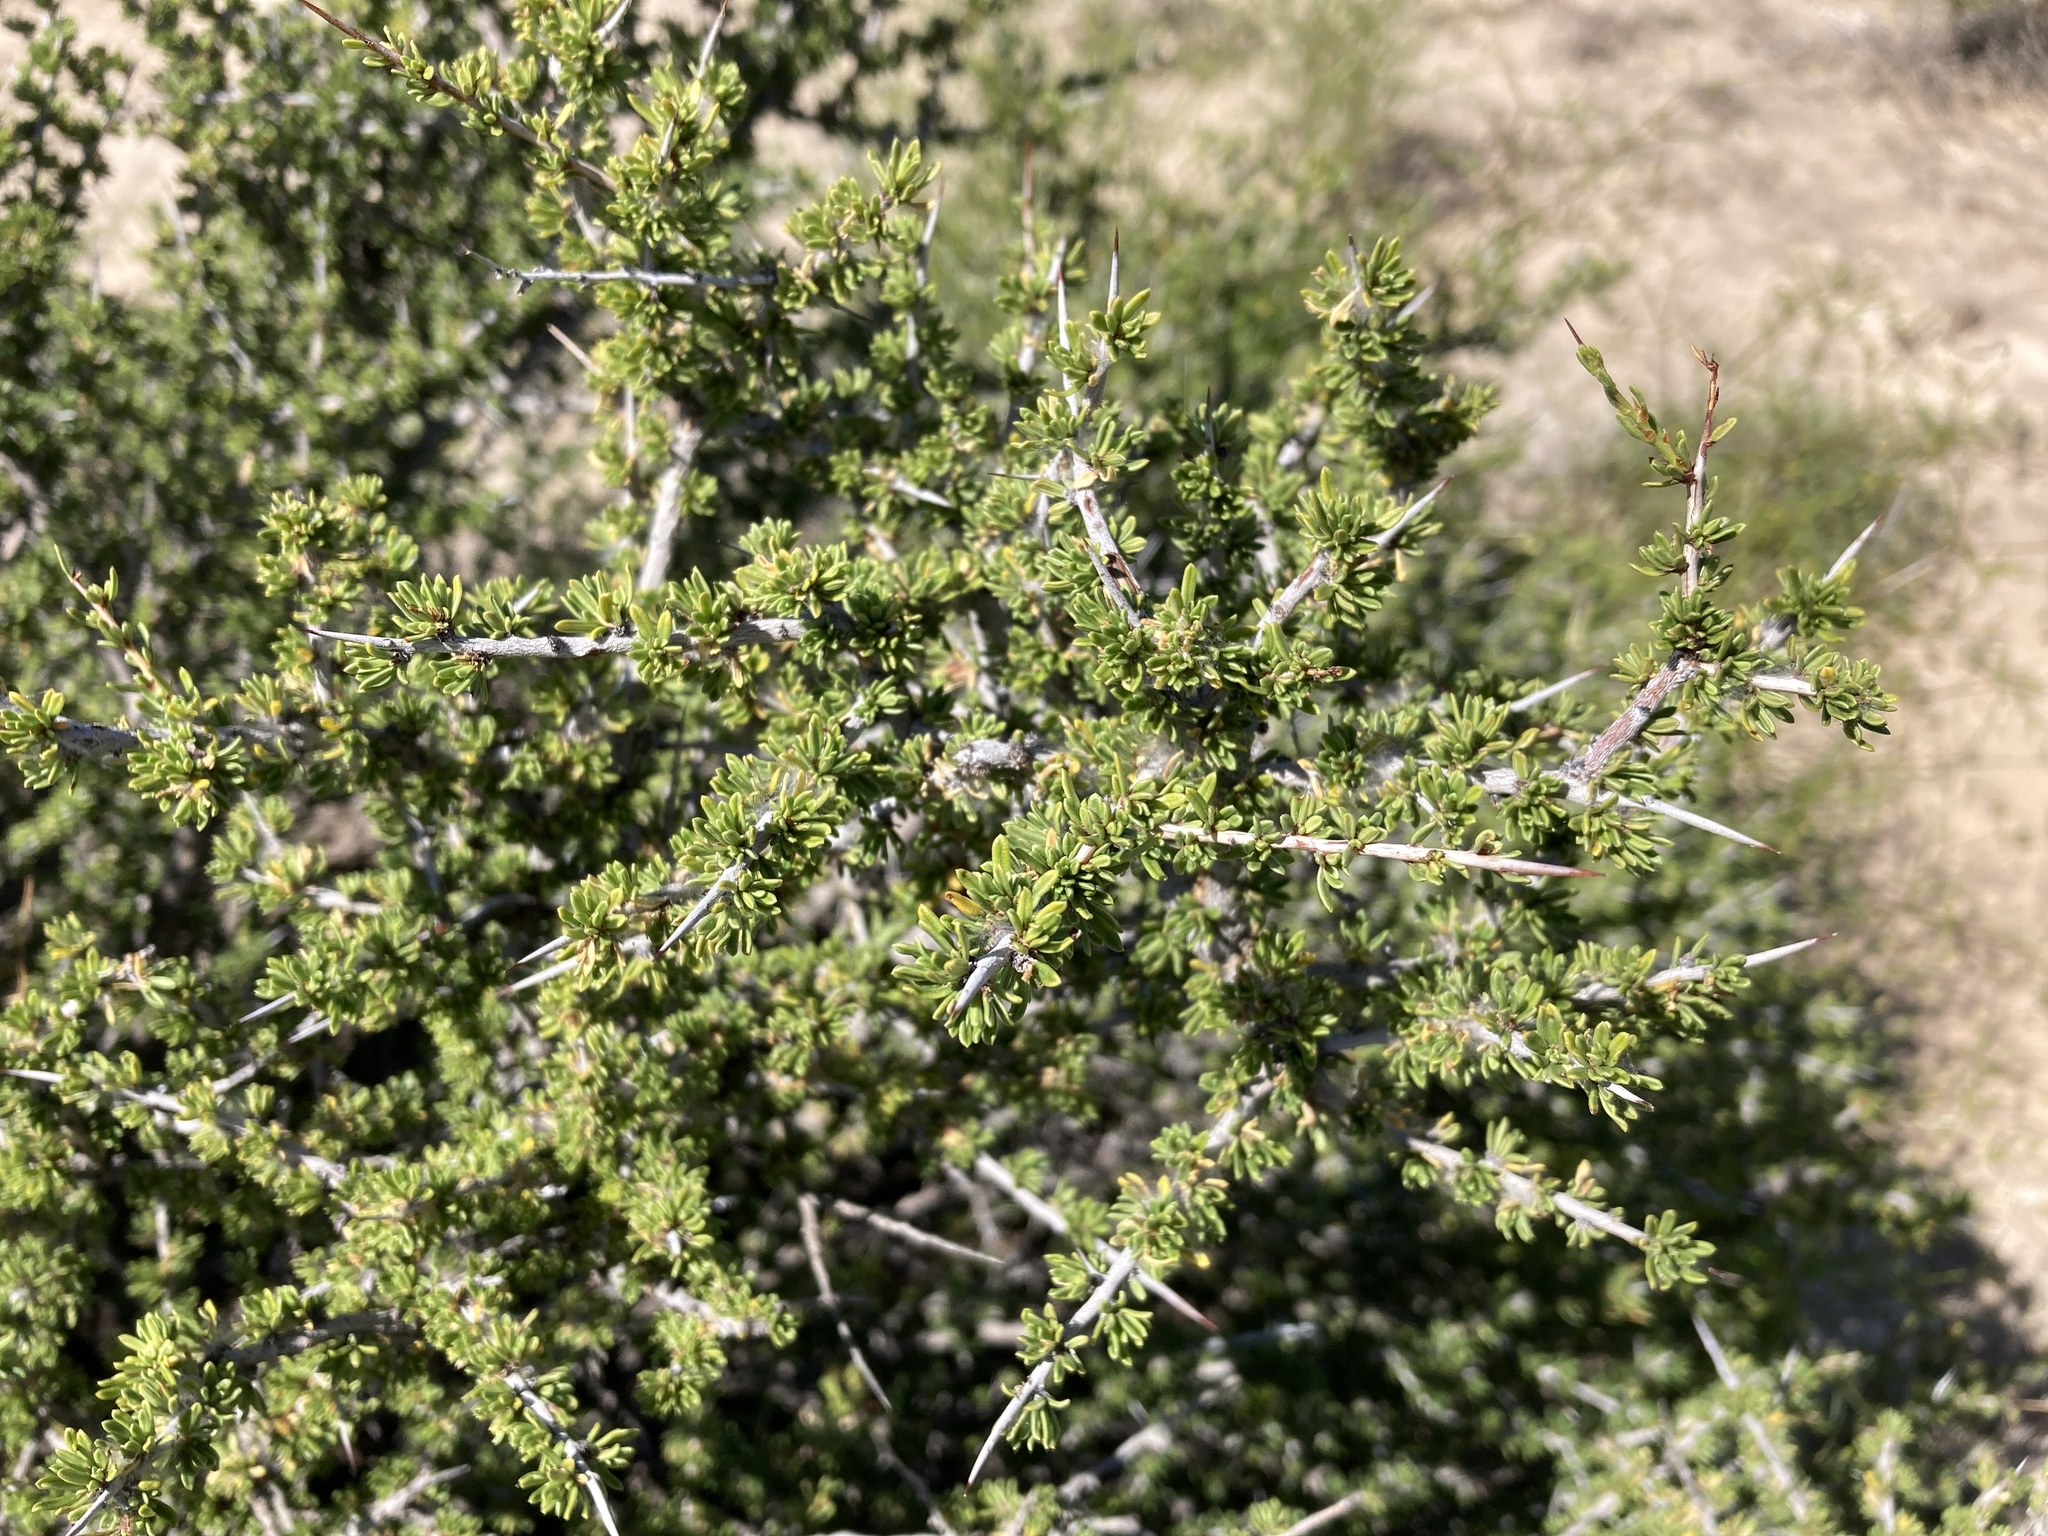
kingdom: Plantae
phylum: Tracheophyta
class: Magnoliopsida
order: Rosales
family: Rhamnaceae
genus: Condalia
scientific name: Condalia ericoides
